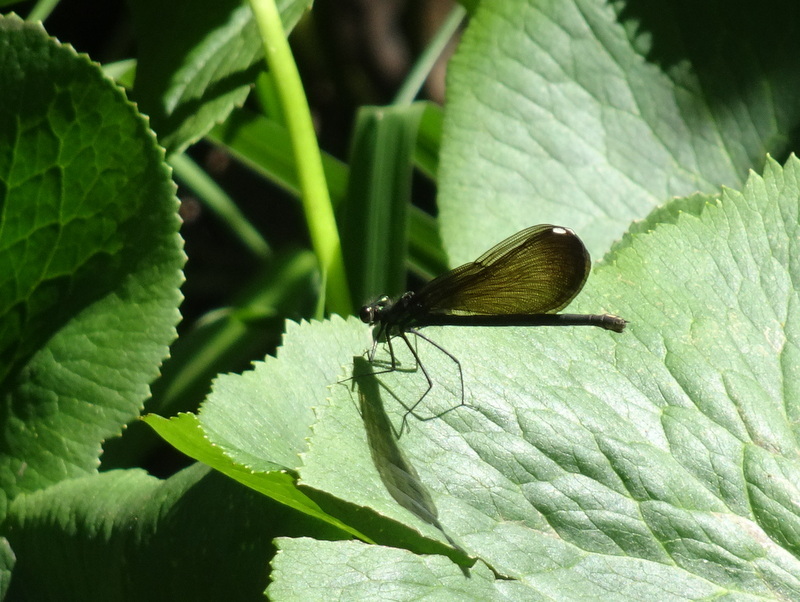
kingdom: Animalia
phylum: Arthropoda
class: Insecta
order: Odonata
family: Calopterygidae
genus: Calopteryx
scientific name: Calopteryx maculata
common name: Ebony jewelwing
